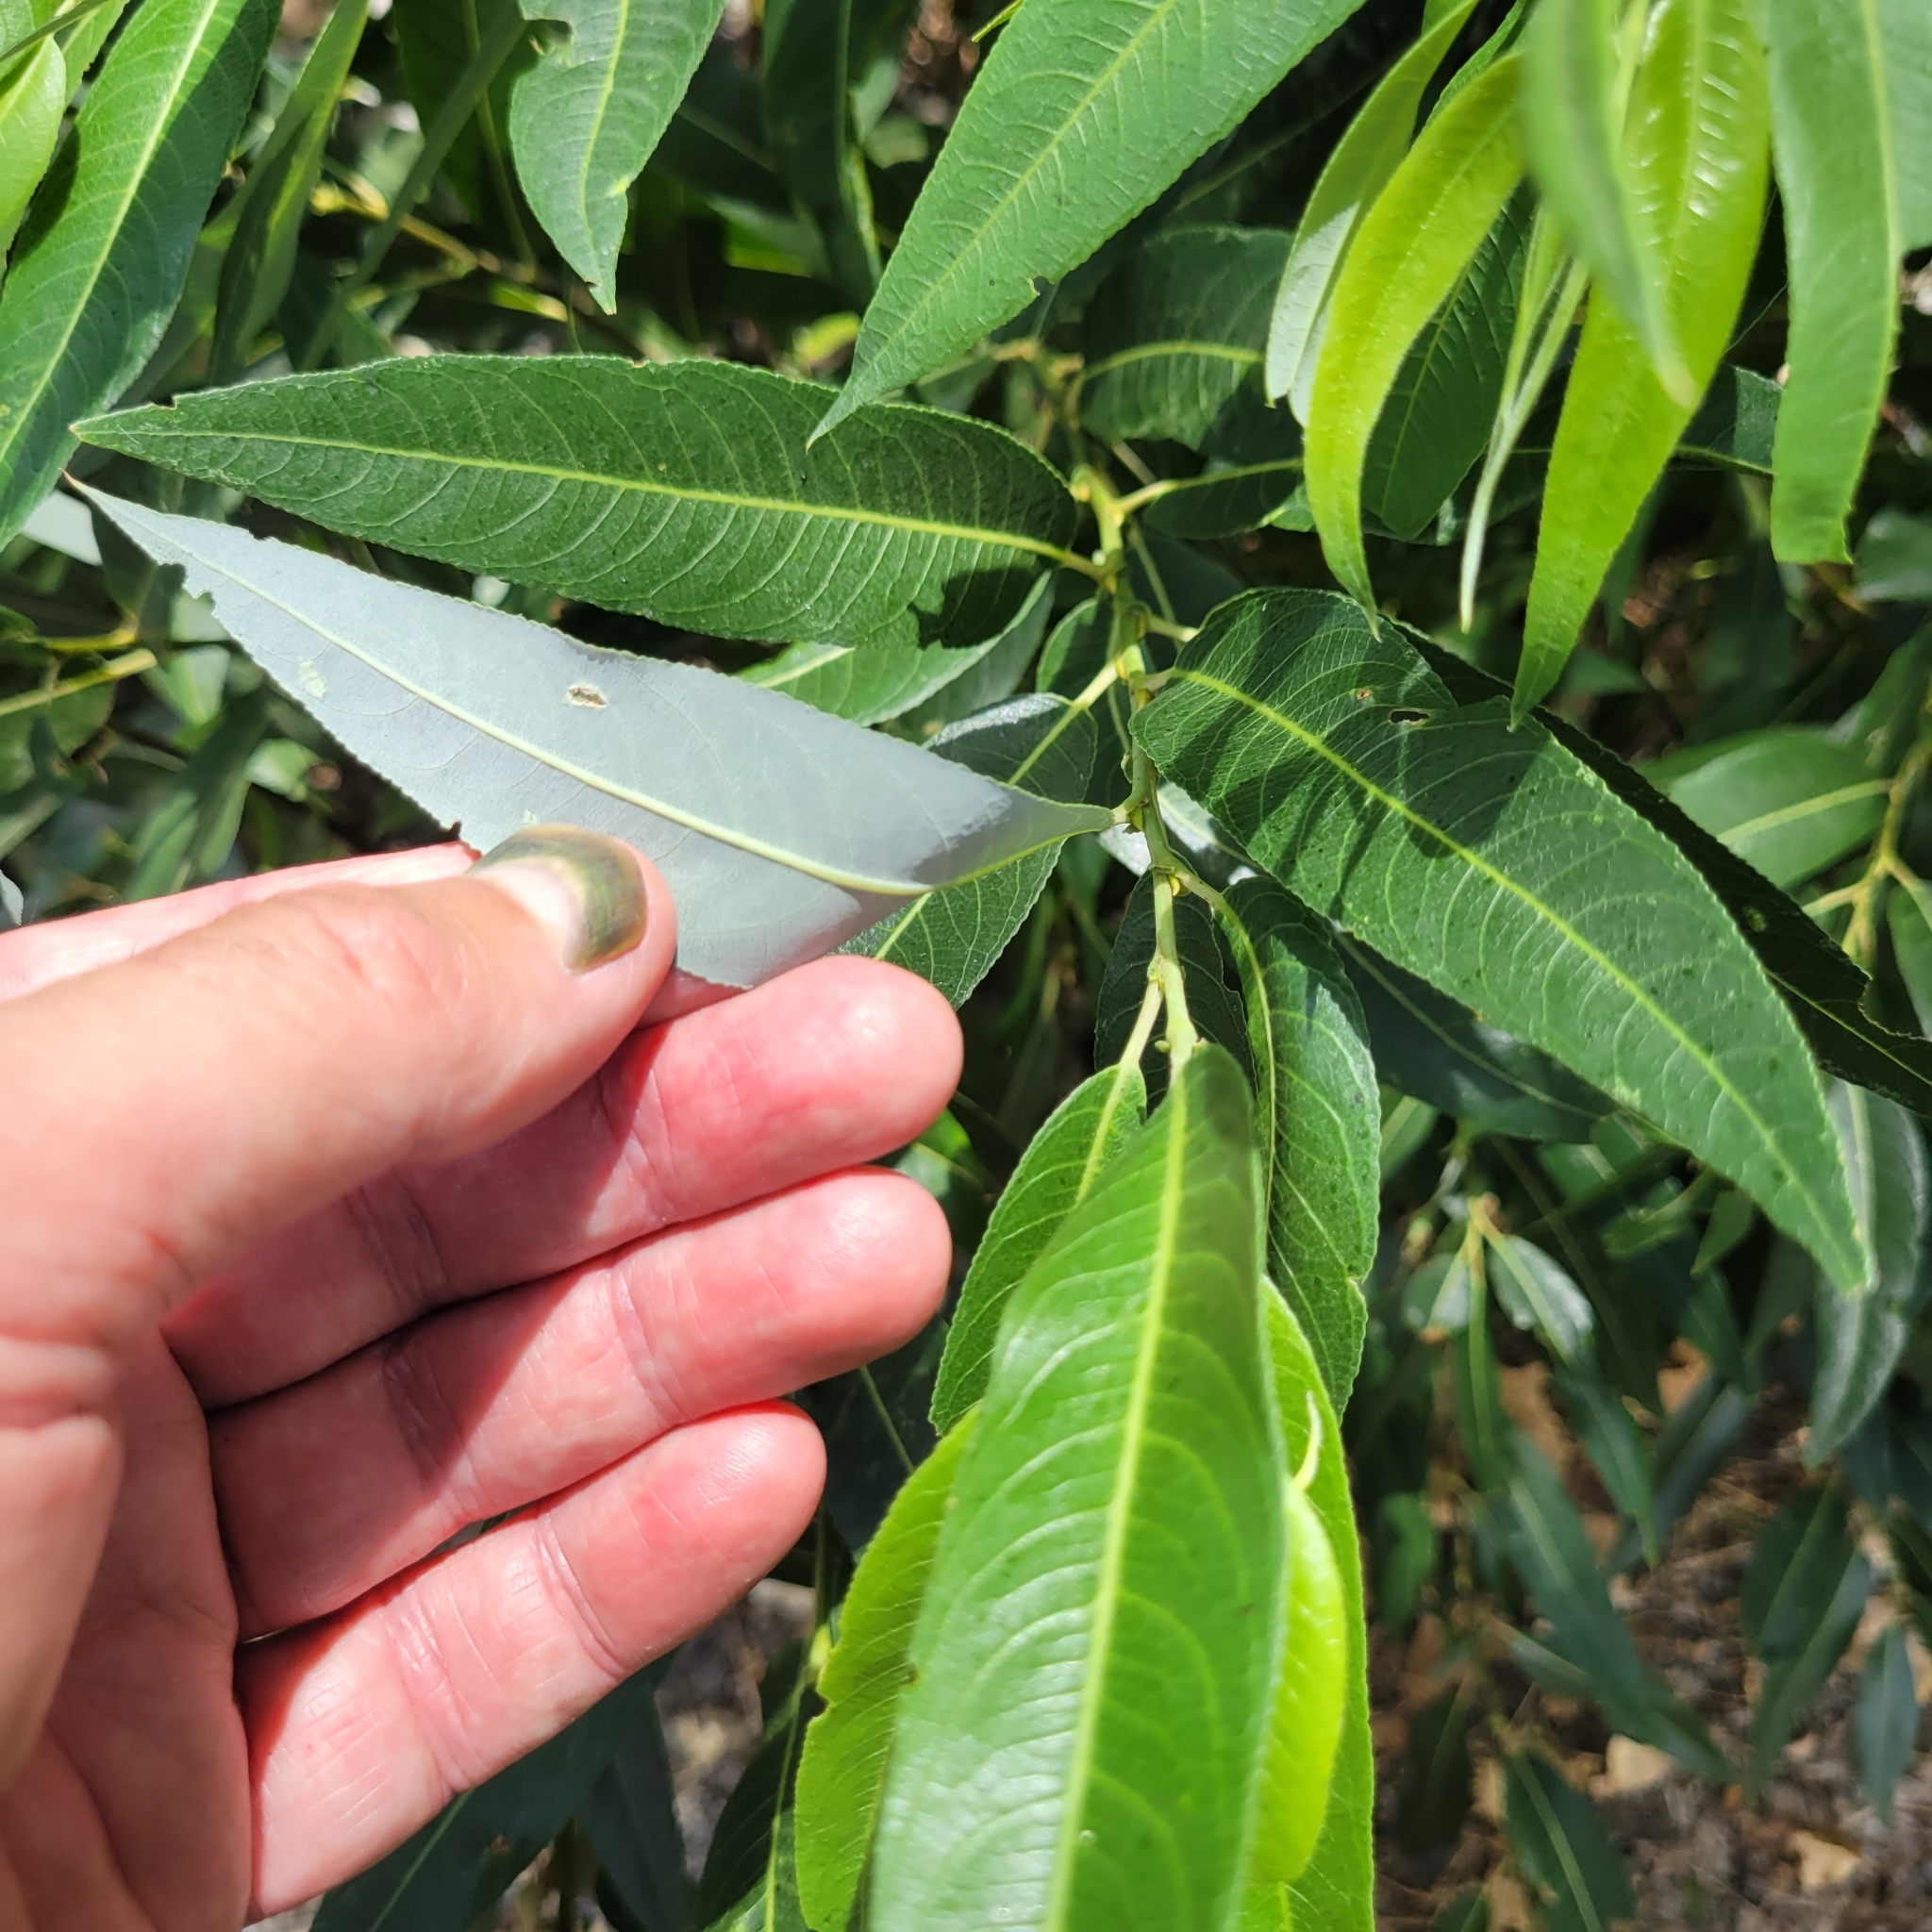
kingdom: Plantae
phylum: Tracheophyta
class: Magnoliopsida
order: Malpighiales
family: Salicaceae
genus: Salix
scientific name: Salix laevigata
